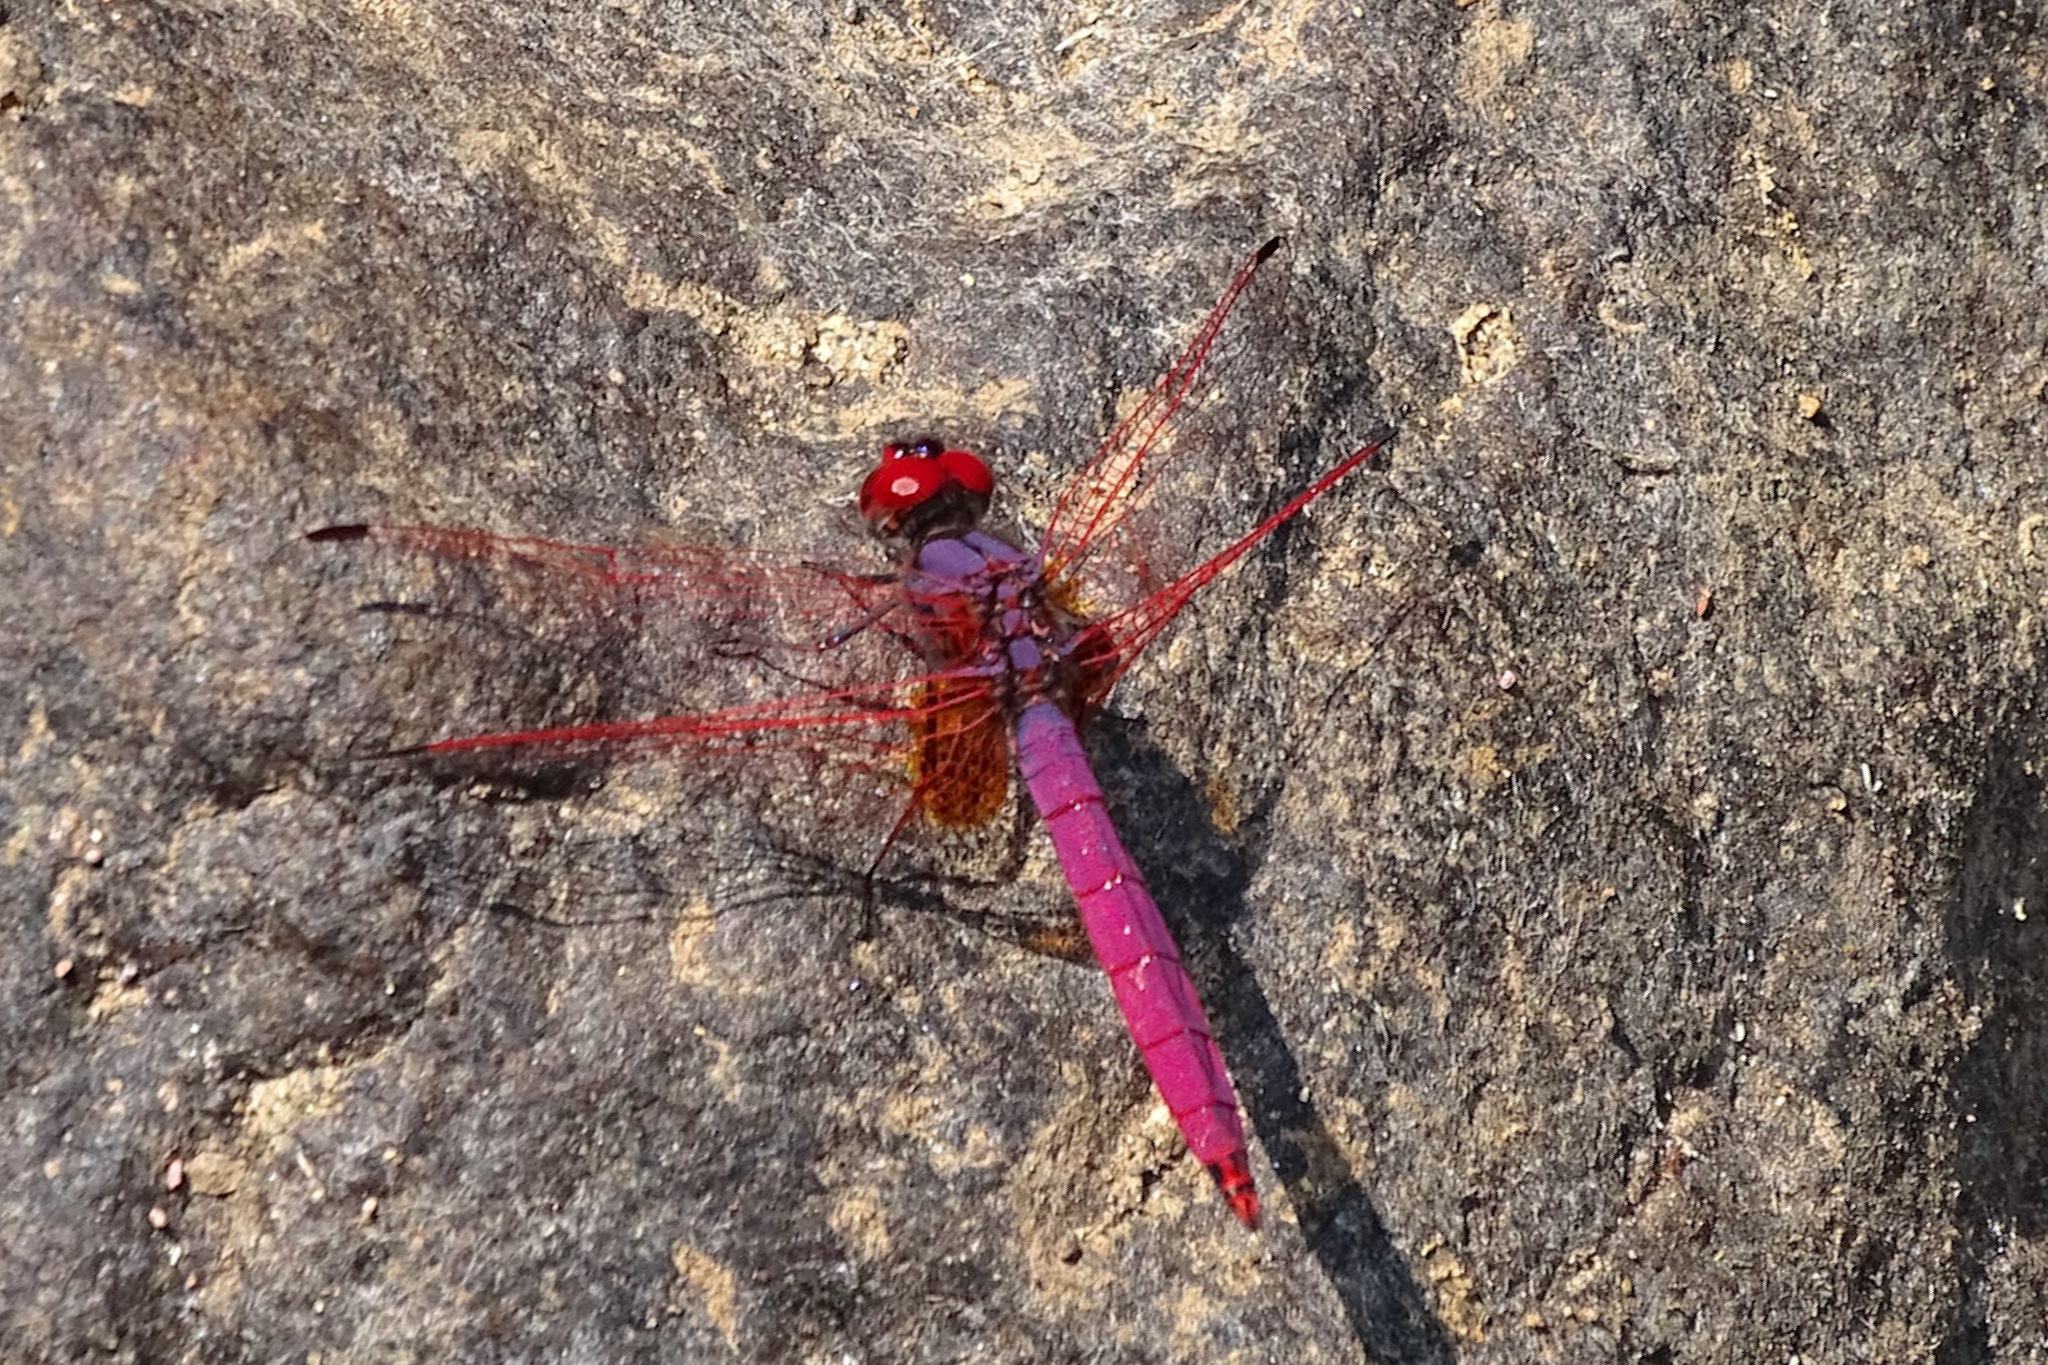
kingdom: Animalia
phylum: Arthropoda
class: Insecta
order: Odonata
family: Libellulidae
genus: Trithemis
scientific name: Trithemis aurora
